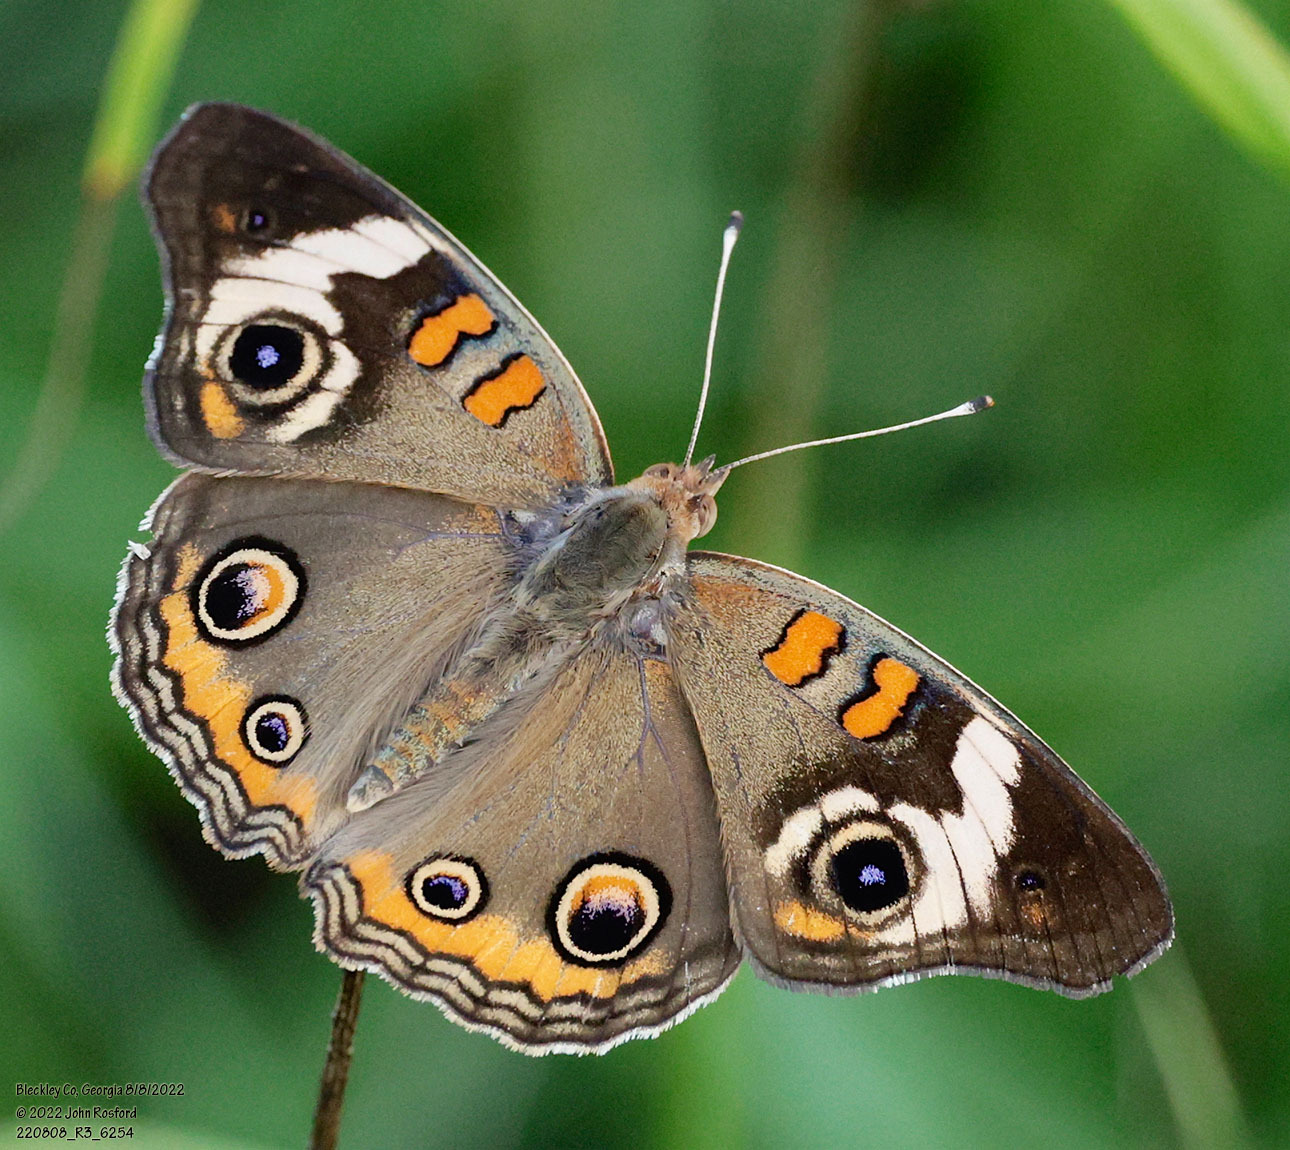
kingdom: Animalia
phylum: Arthropoda
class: Insecta
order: Lepidoptera
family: Nymphalidae
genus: Junonia
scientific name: Junonia coenia
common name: Common buckeye
